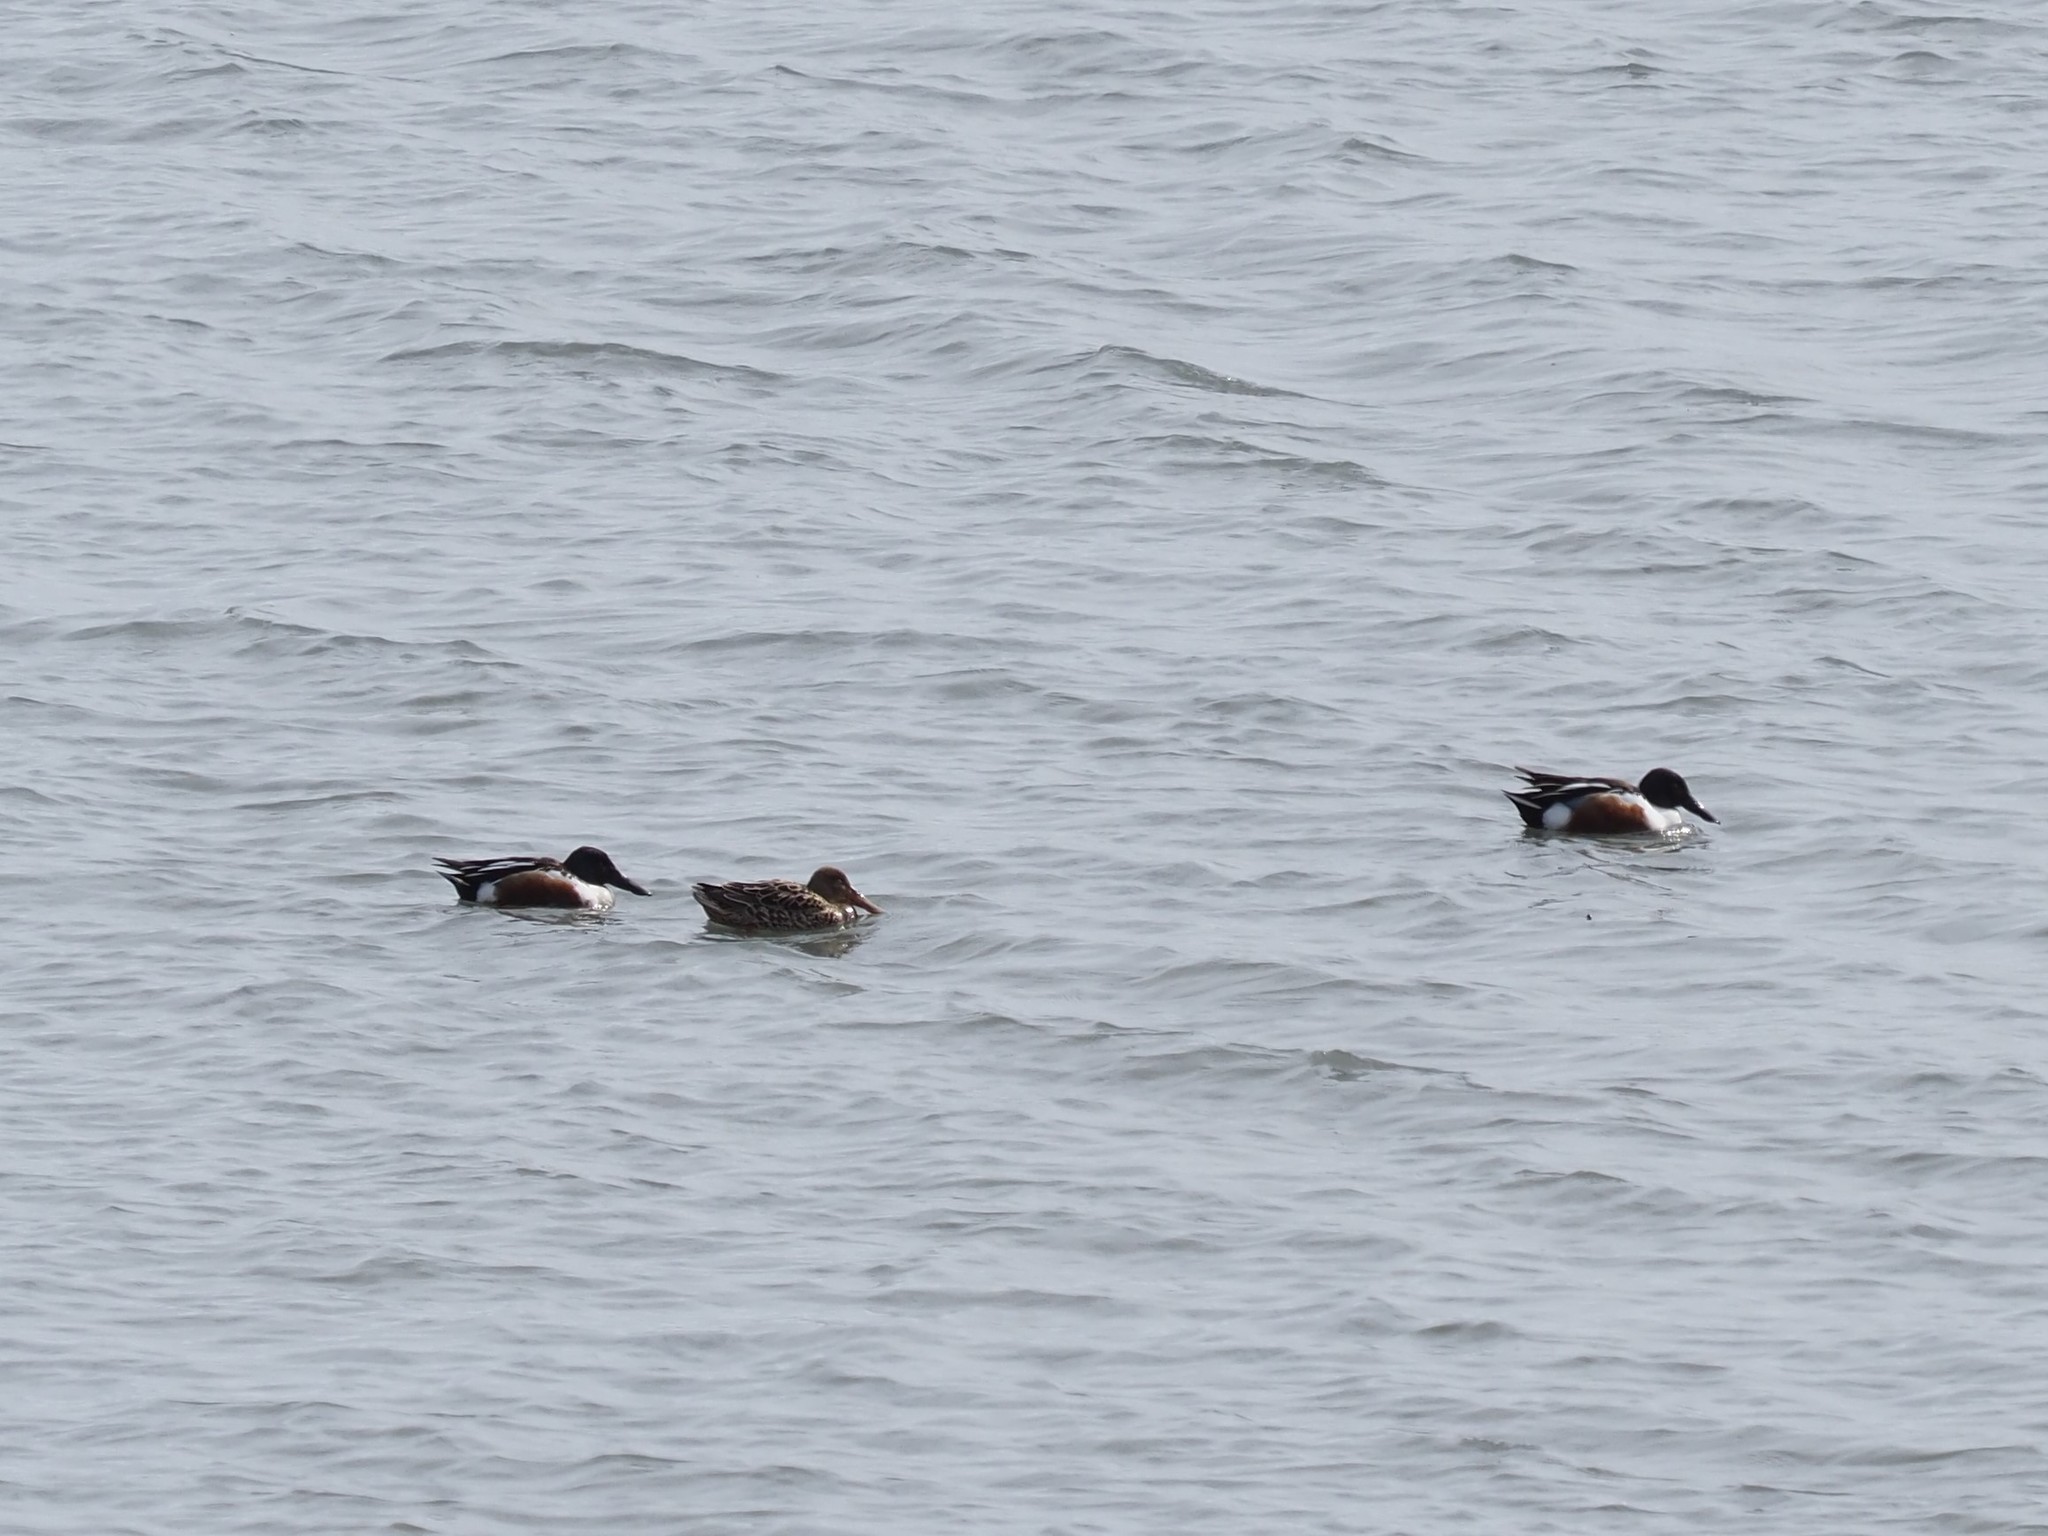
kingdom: Animalia
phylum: Chordata
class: Aves
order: Anseriformes
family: Anatidae
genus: Spatula
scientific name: Spatula clypeata
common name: Northern shoveler
